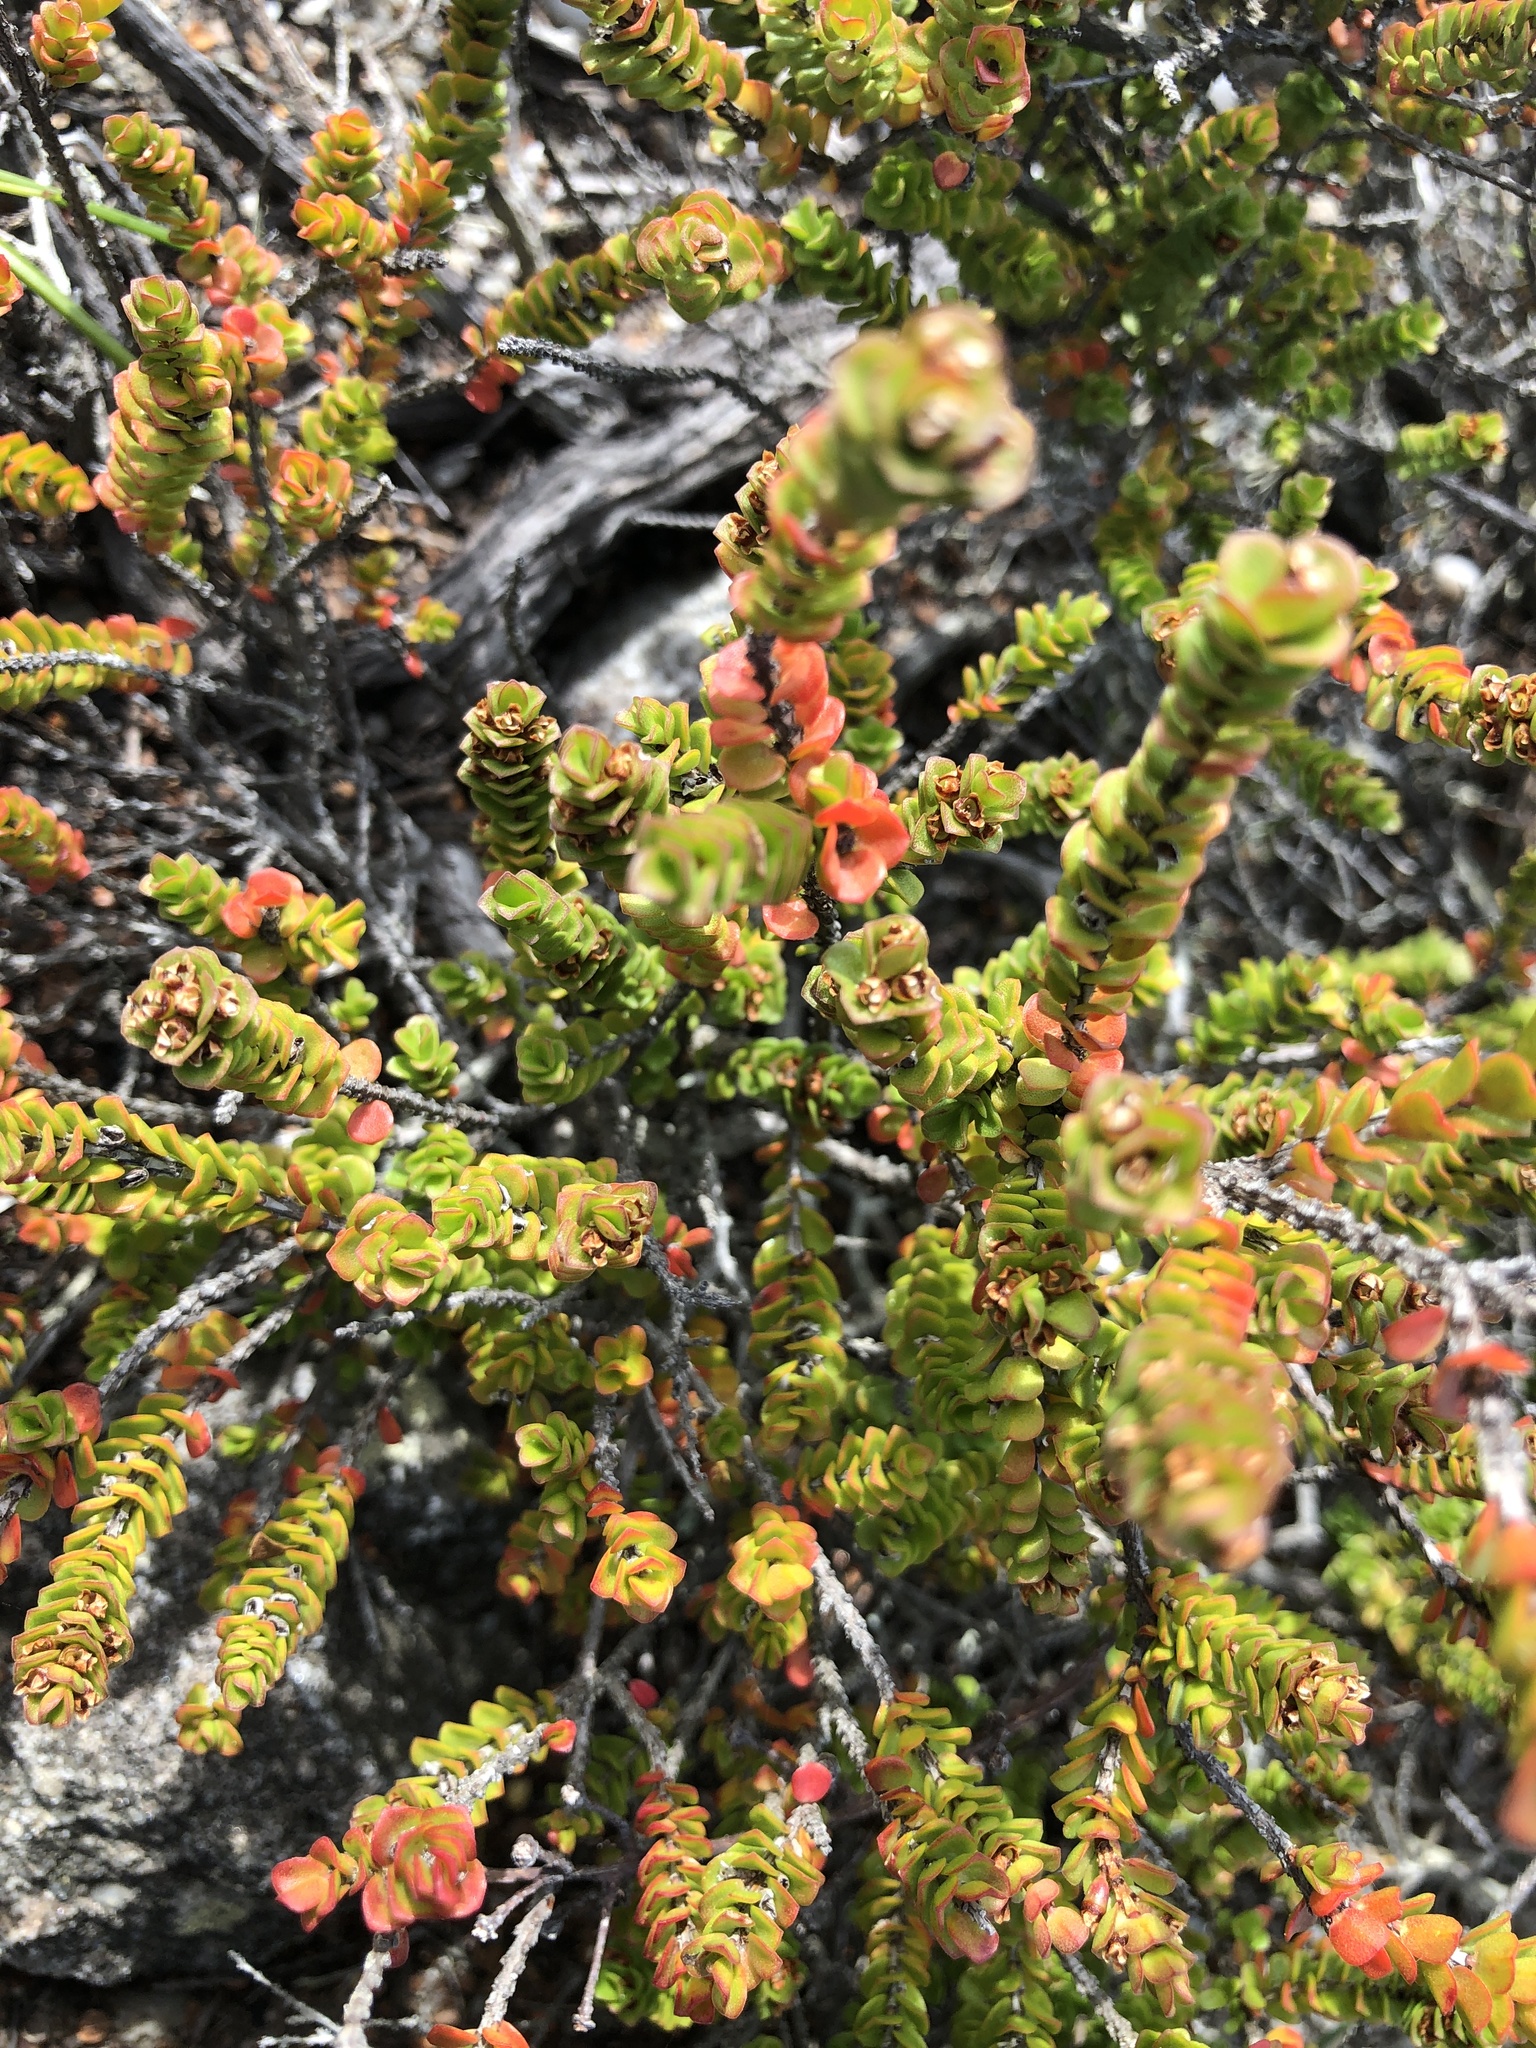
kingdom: Plantae
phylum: Tracheophyta
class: Magnoliopsida
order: Myrtales
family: Myrtaceae
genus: Baeckea
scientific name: Baeckea imbricata
